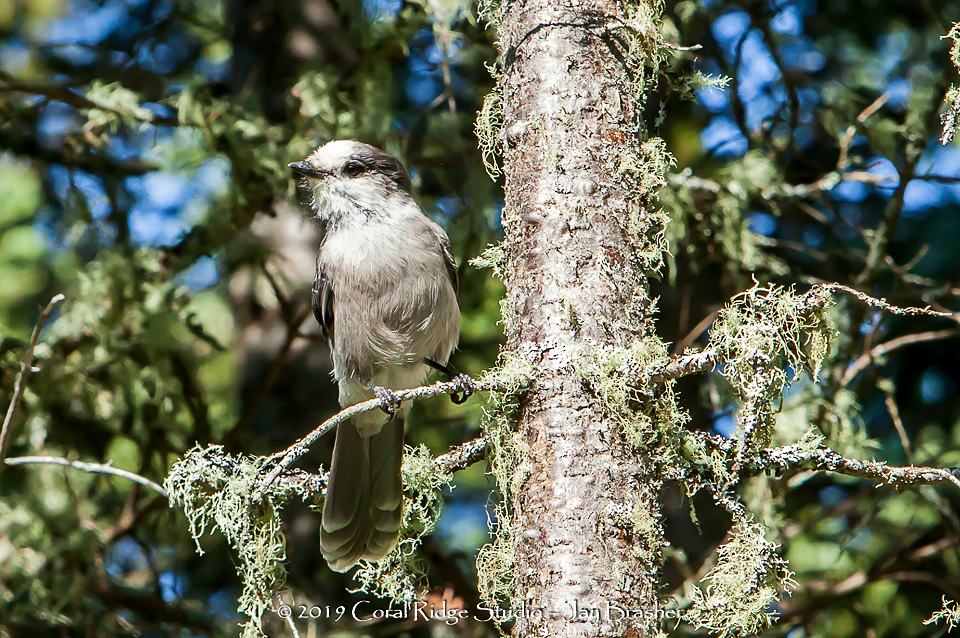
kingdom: Animalia
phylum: Chordata
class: Aves
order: Passeriformes
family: Corvidae
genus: Perisoreus
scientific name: Perisoreus canadensis
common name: Gray jay
